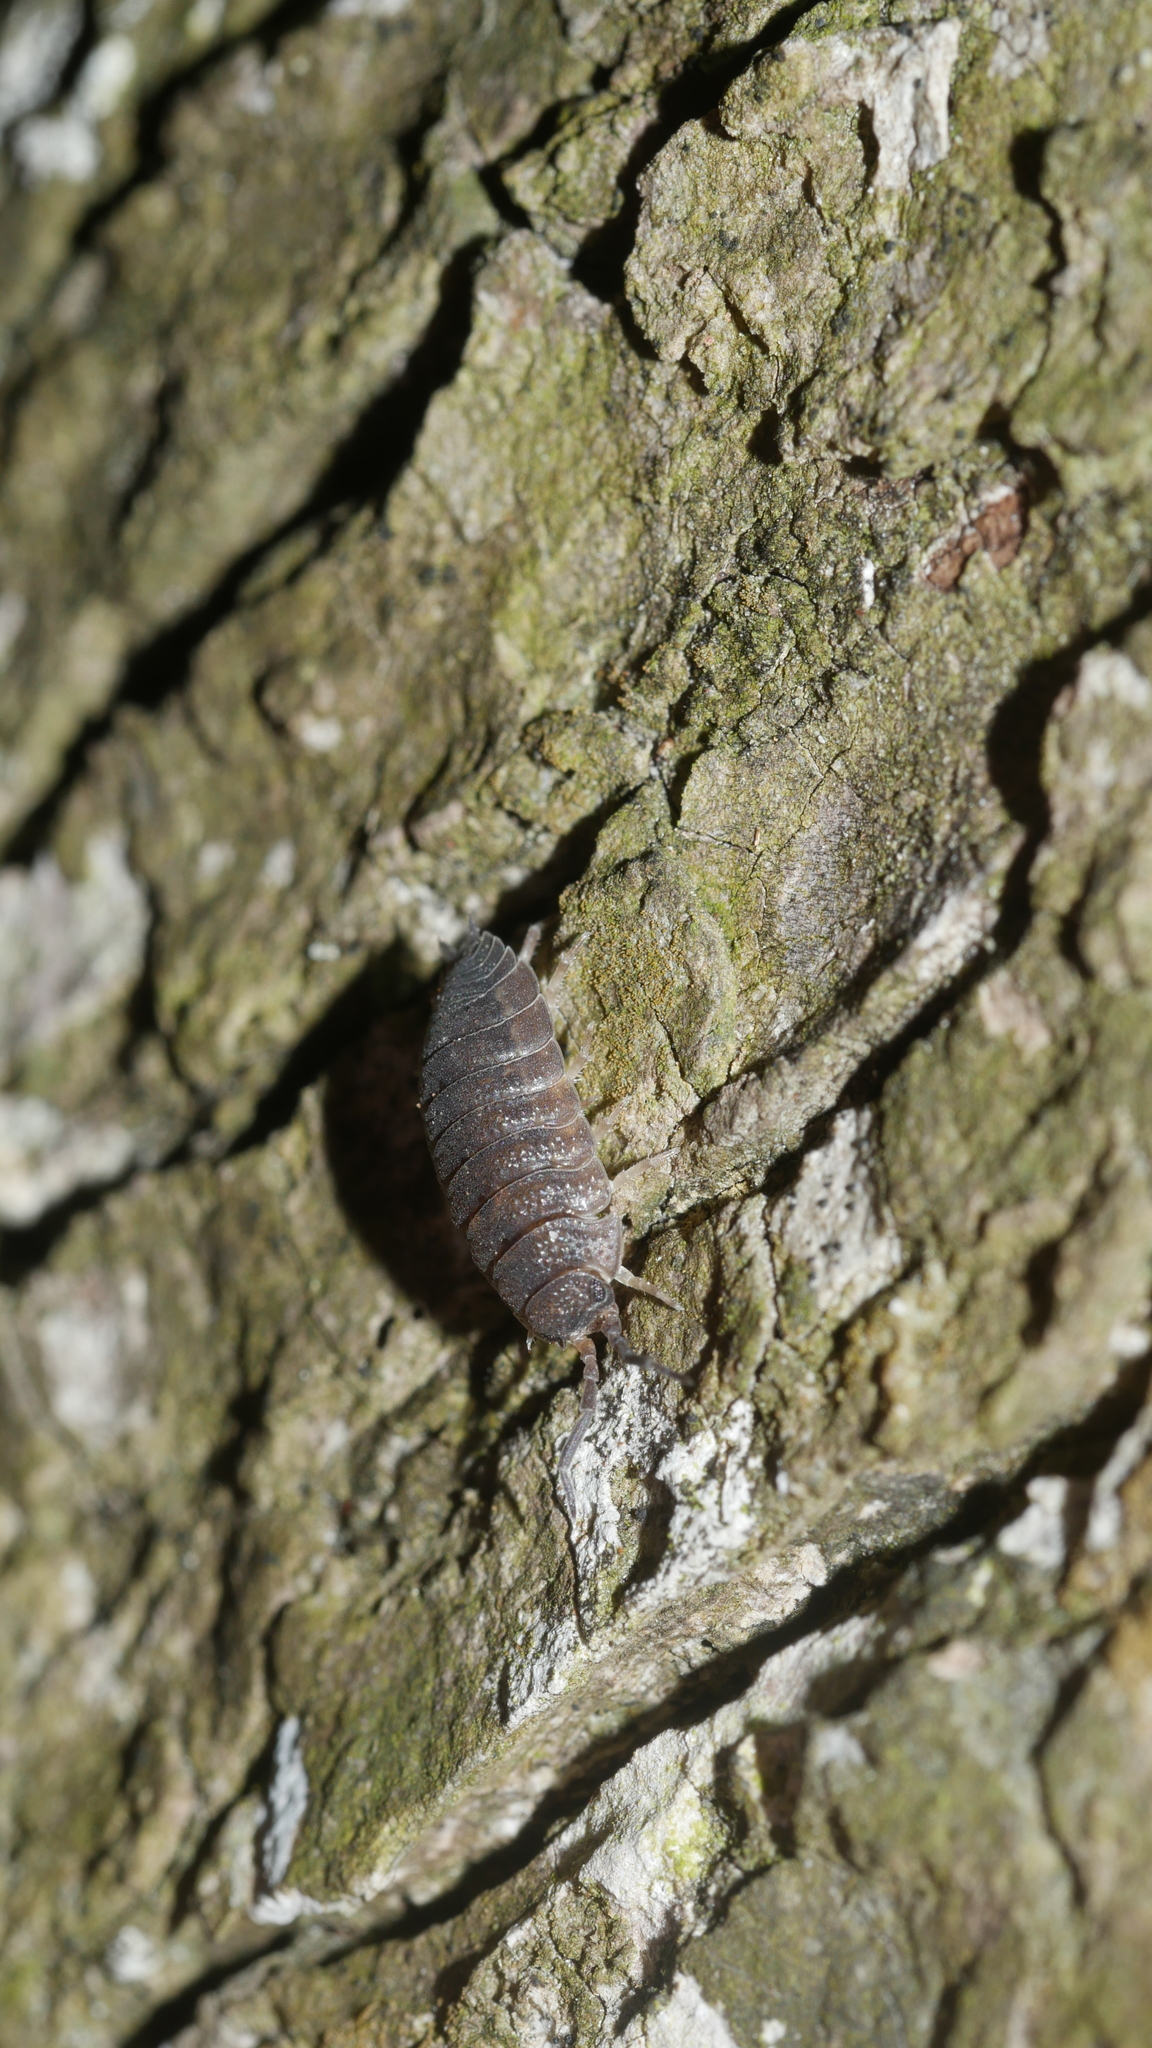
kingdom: Animalia
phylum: Arthropoda
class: Malacostraca
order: Isopoda
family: Porcellionidae
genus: Porcellio
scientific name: Porcellio scaber
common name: Common rough woodlouse
